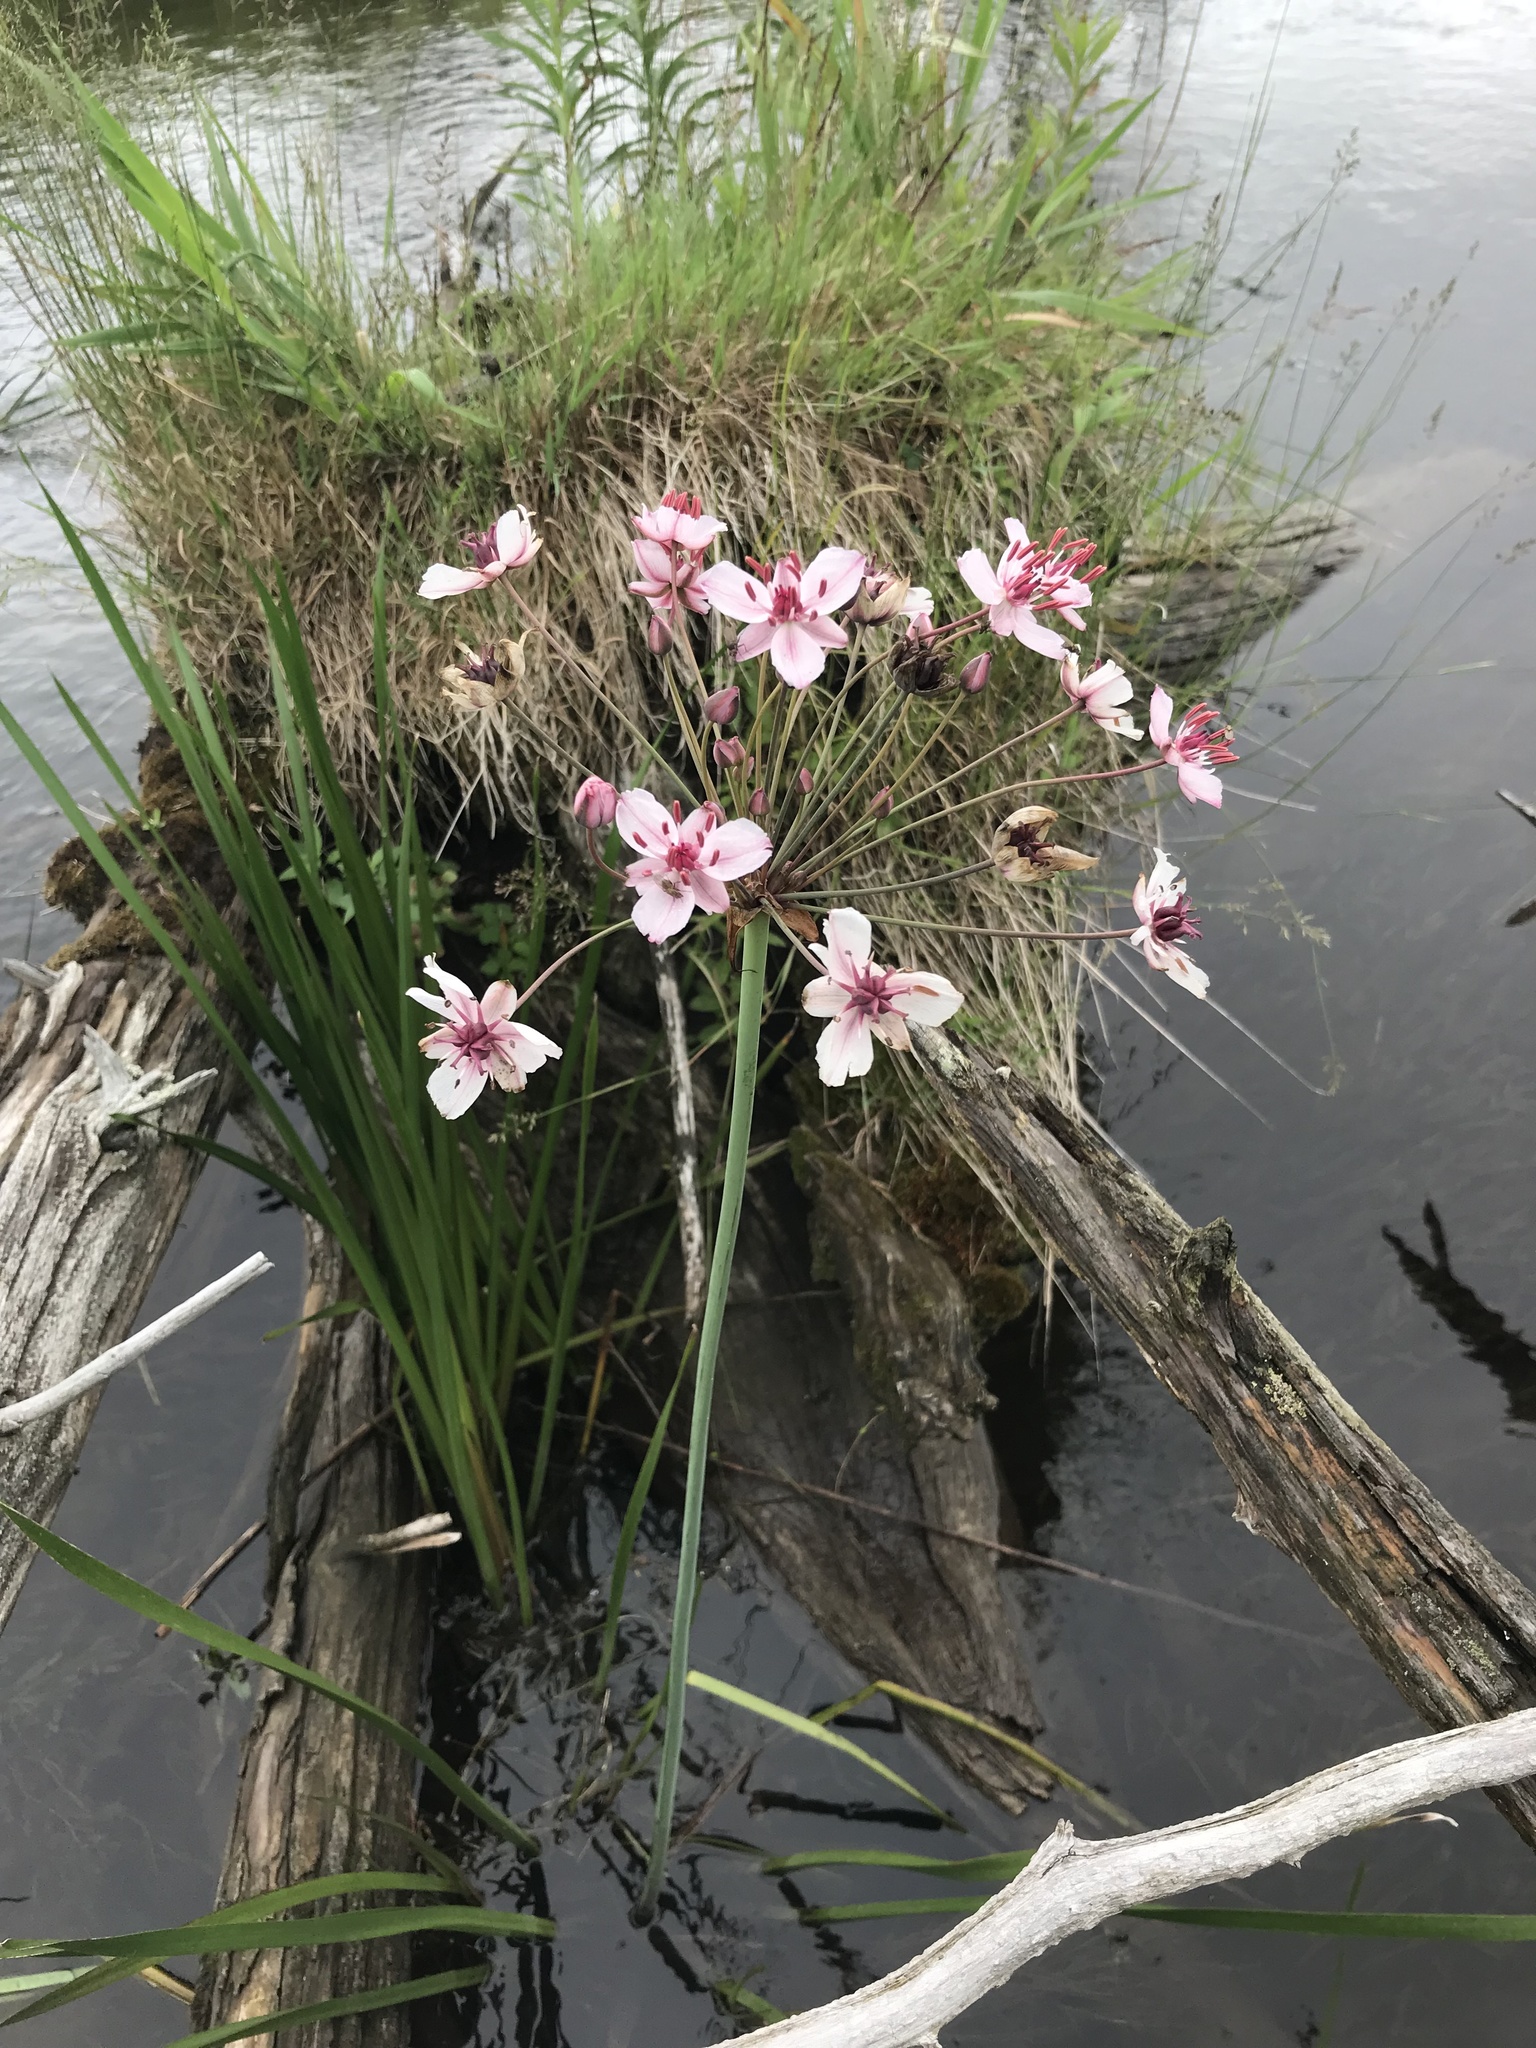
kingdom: Plantae
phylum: Tracheophyta
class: Liliopsida
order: Alismatales
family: Butomaceae
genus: Butomus
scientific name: Butomus umbellatus
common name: Flowering-rush
